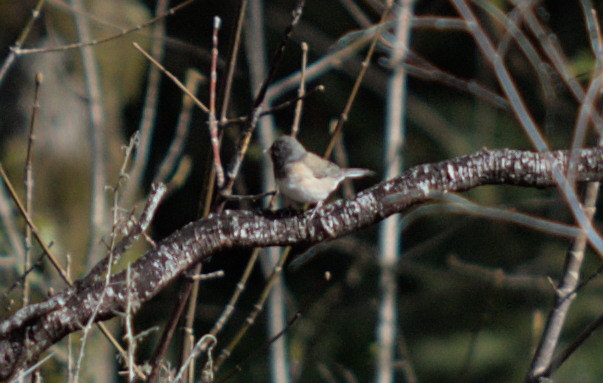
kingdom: Animalia
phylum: Chordata
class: Aves
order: Passeriformes
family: Passerellidae
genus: Junco
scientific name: Junco hyemalis
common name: Dark-eyed junco
